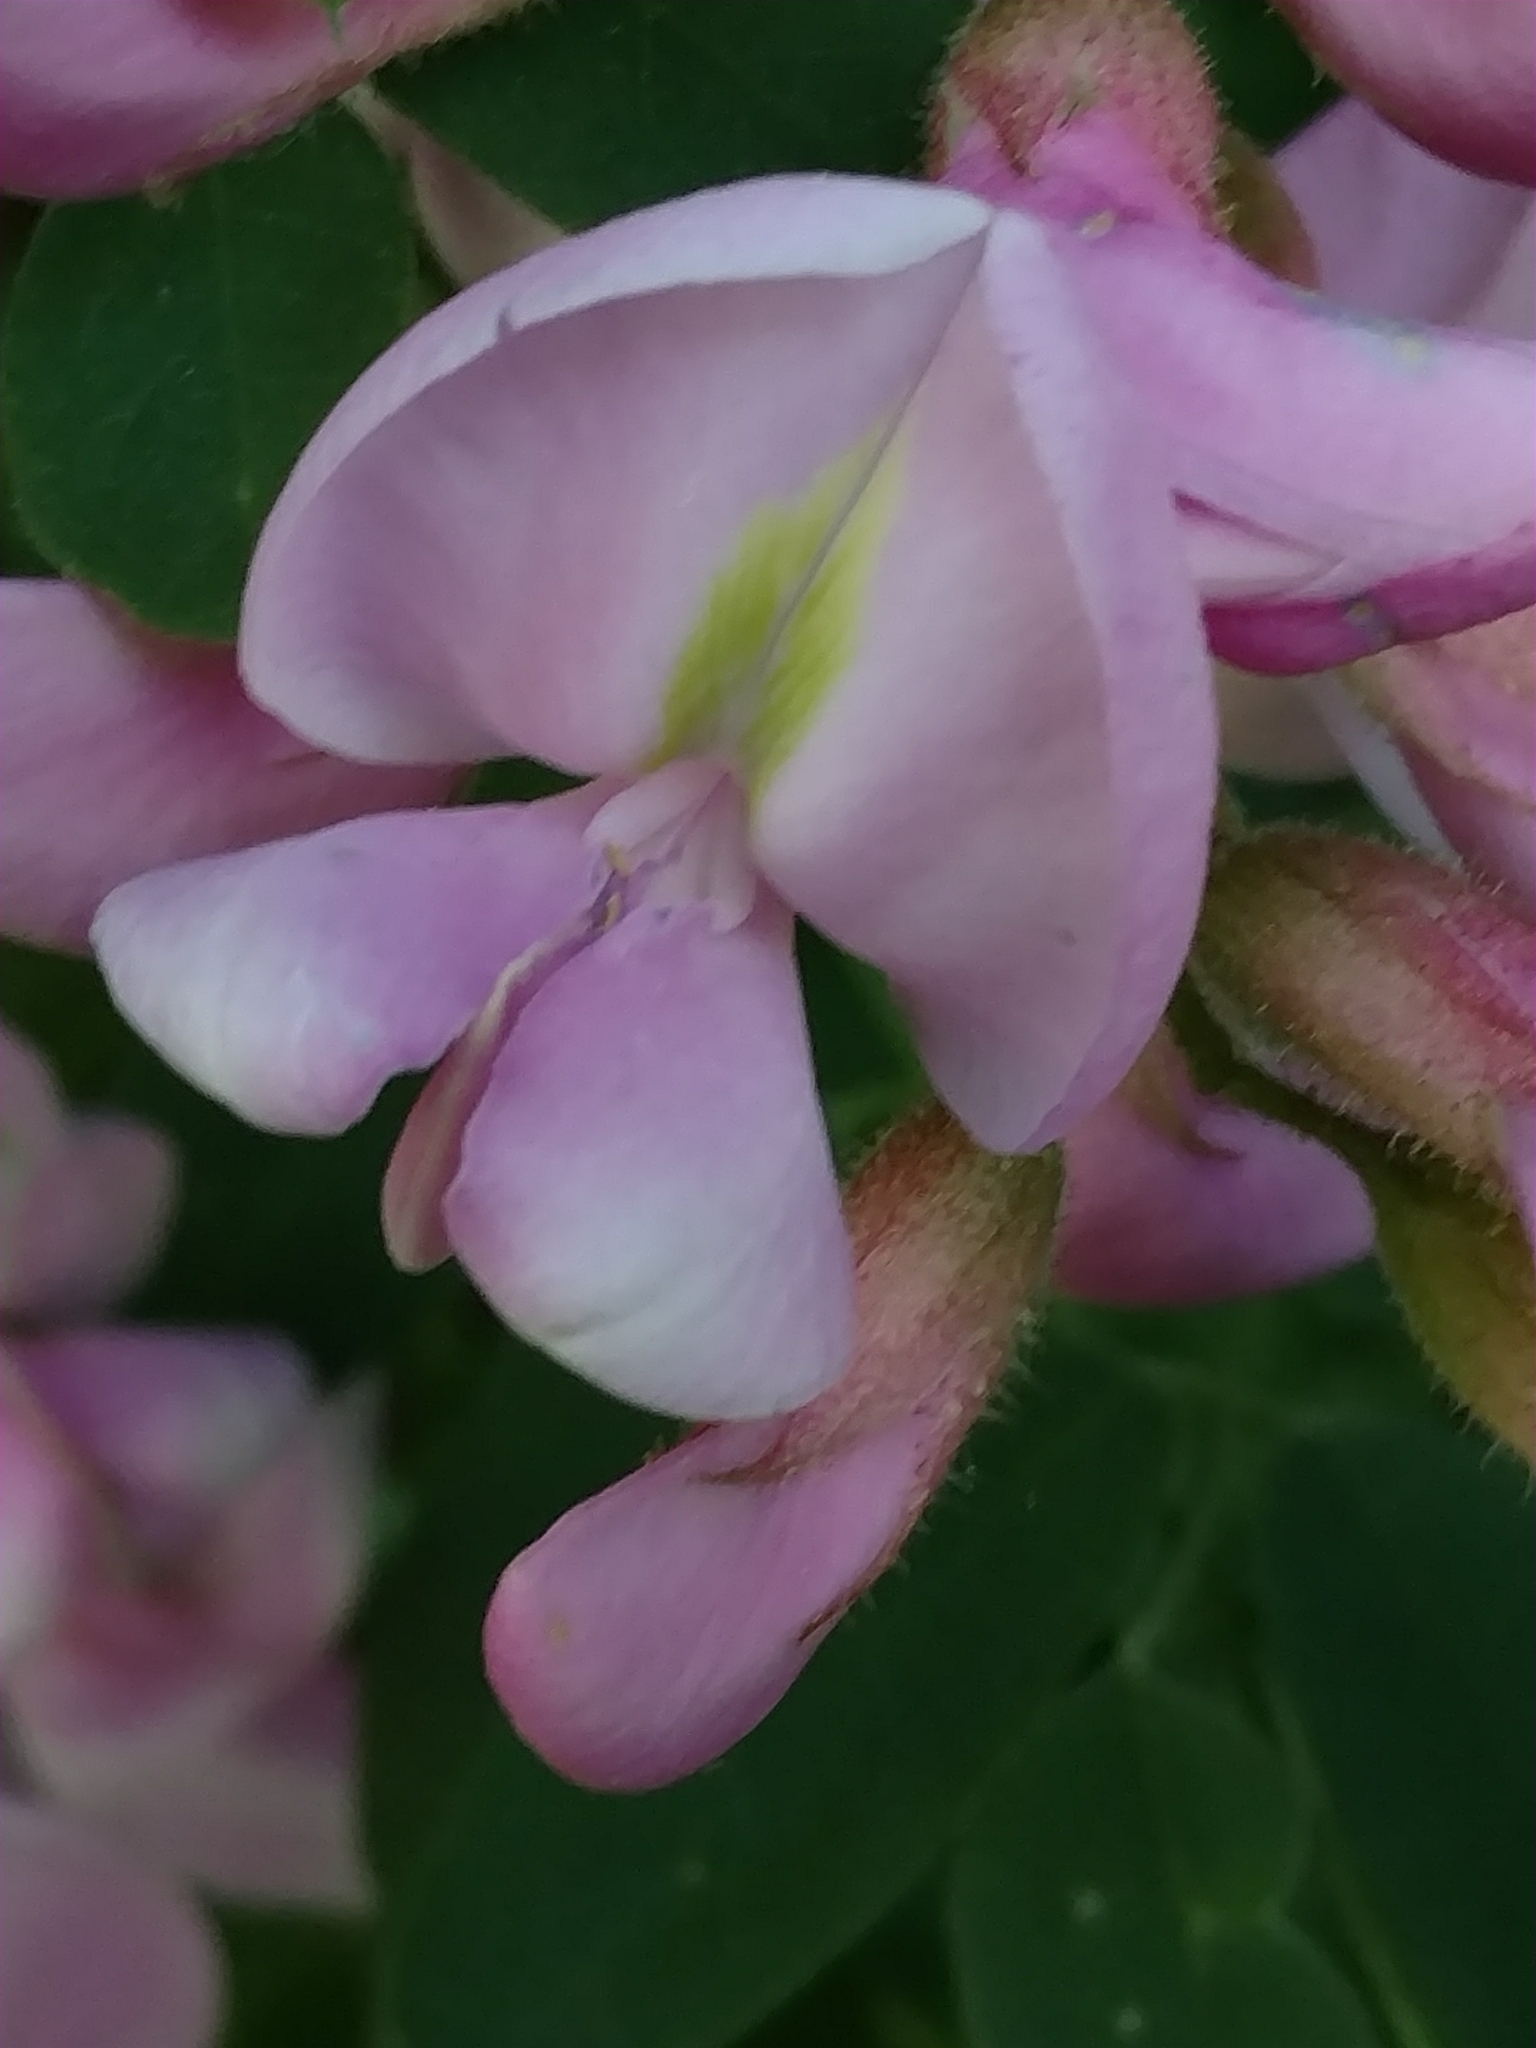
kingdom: Plantae
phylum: Tracheophyta
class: Magnoliopsida
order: Fabales
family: Fabaceae
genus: Robinia
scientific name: Robinia hispida
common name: Bristly locust
